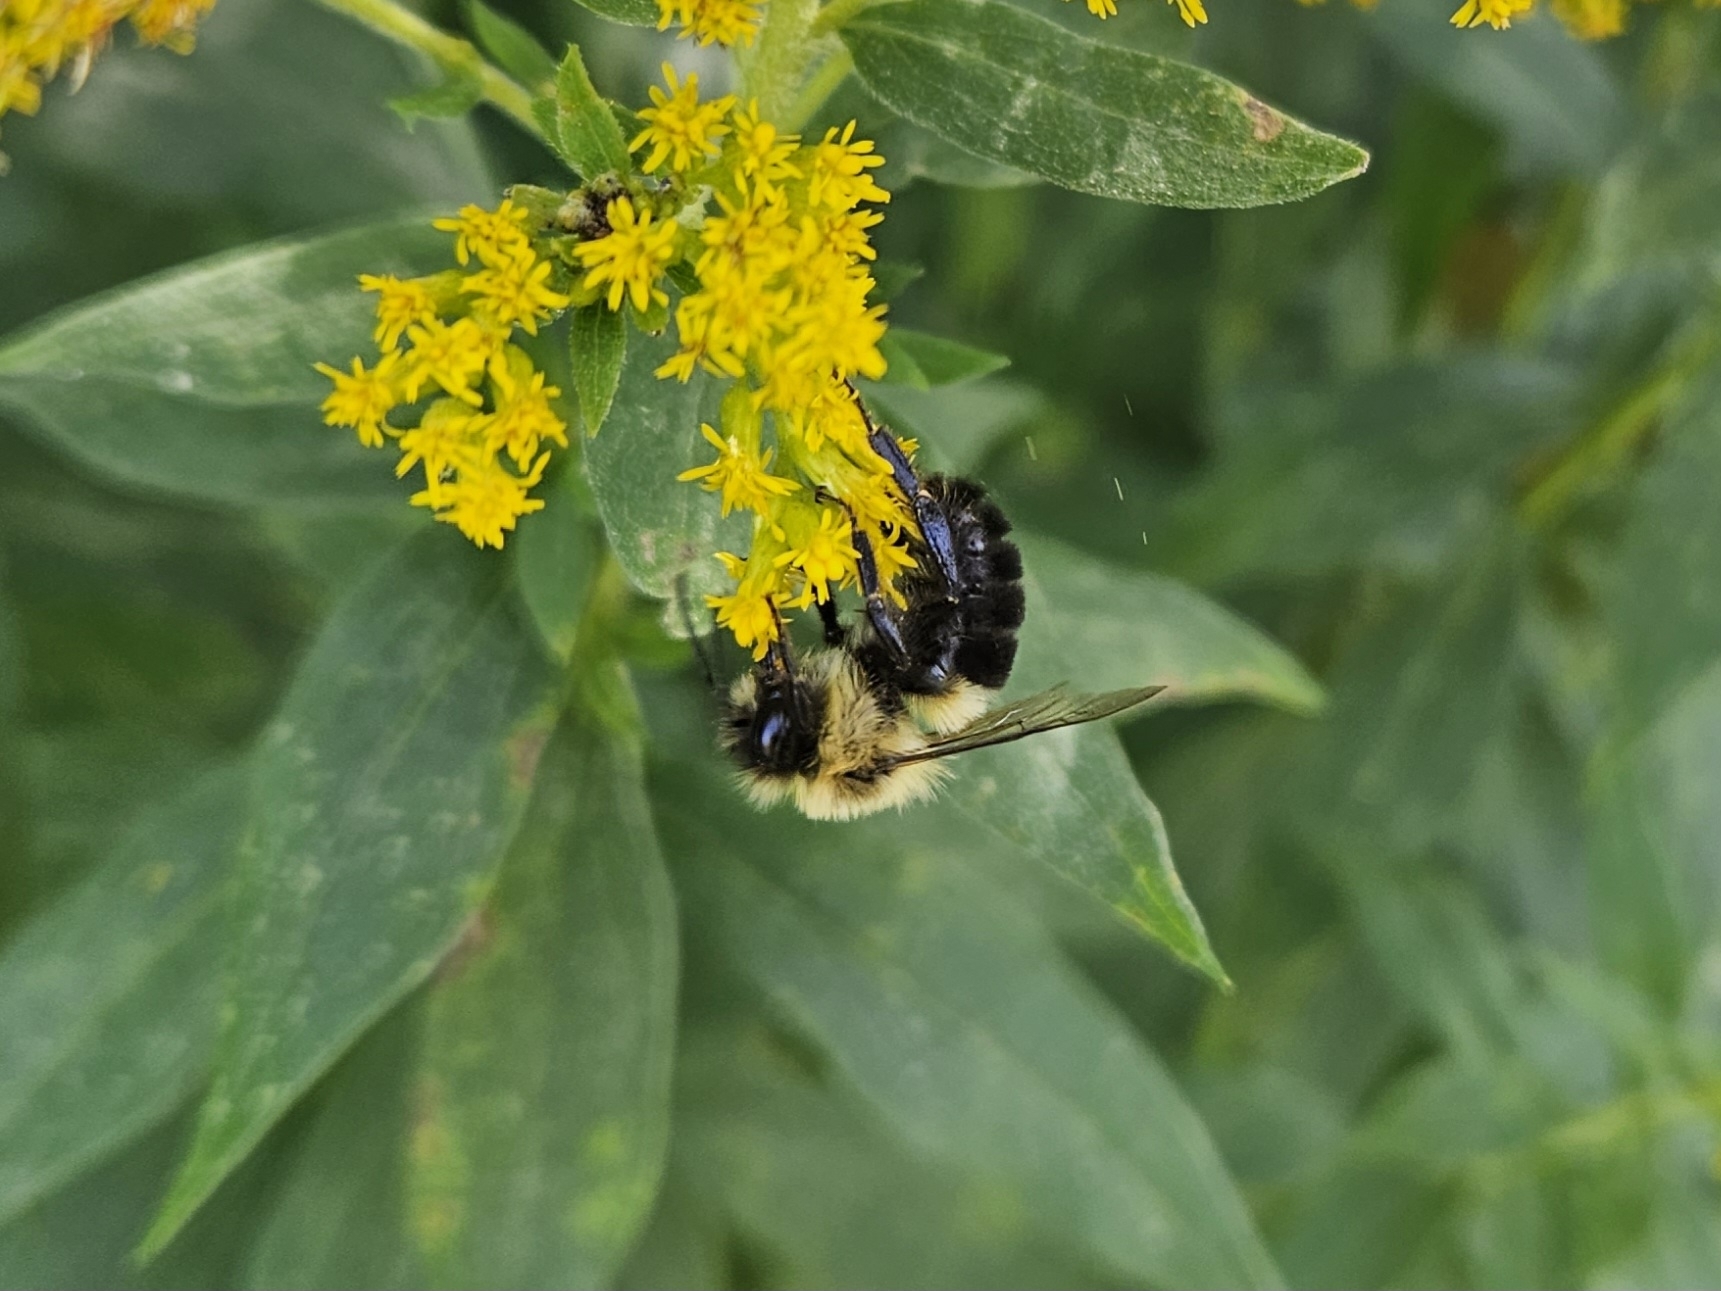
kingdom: Animalia
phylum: Arthropoda
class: Insecta
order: Hymenoptera
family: Apidae
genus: Bombus
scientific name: Bombus impatiens
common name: Common eastern bumble bee
